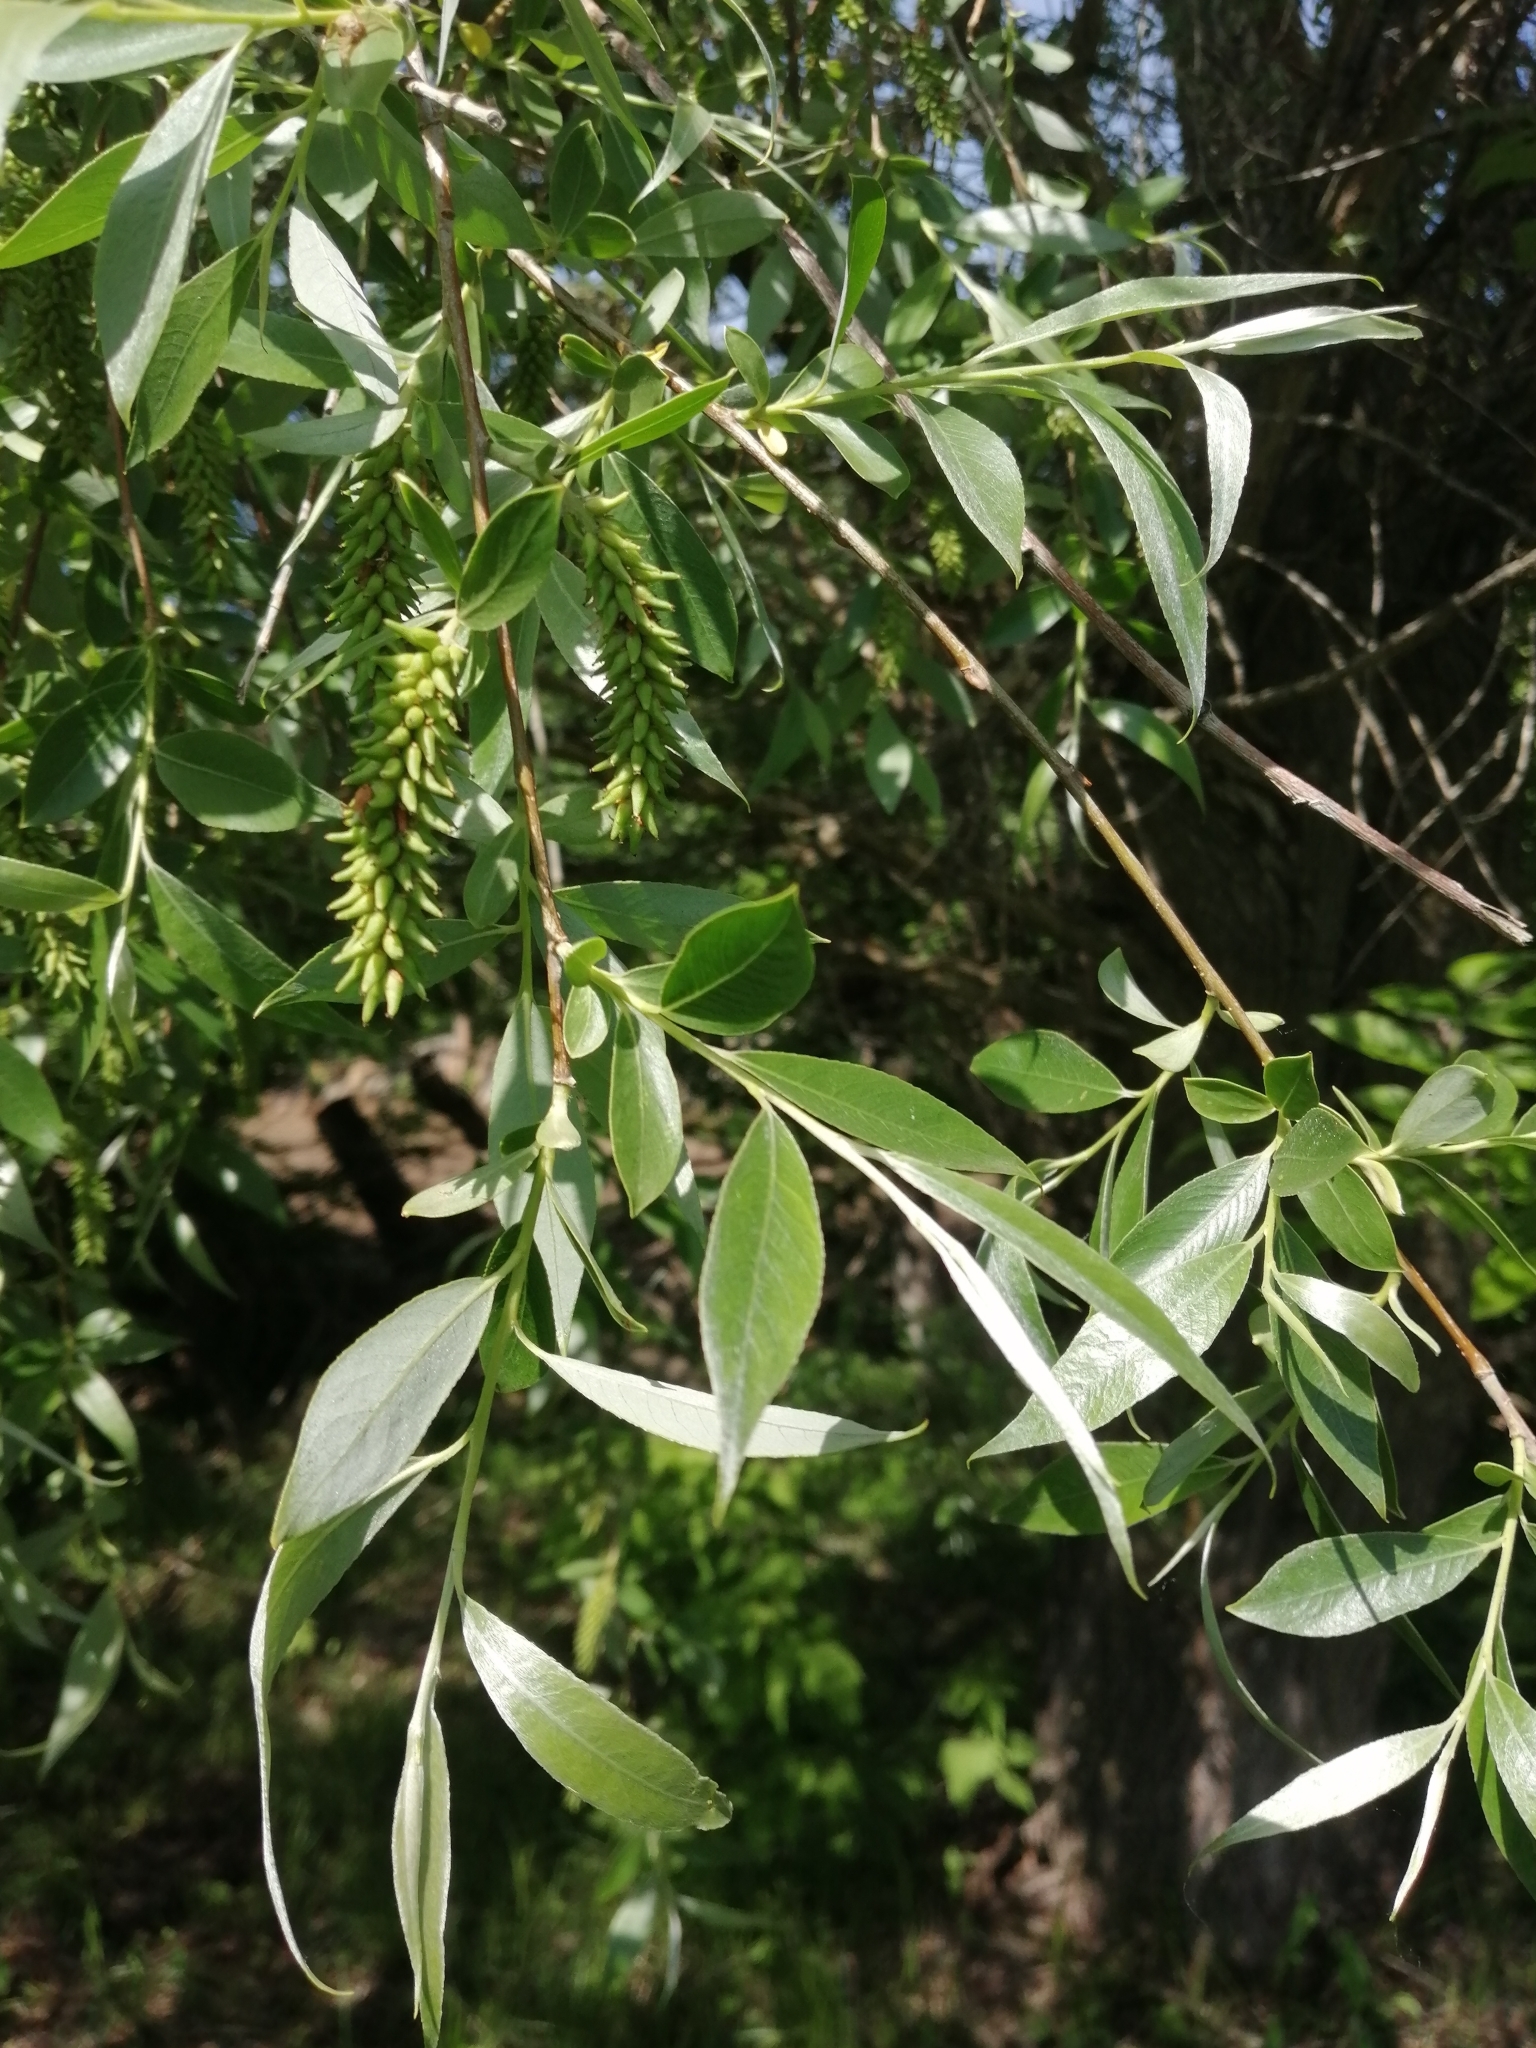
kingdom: Plantae
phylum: Tracheophyta
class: Magnoliopsida
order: Malpighiales
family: Salicaceae
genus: Salix
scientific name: Salix alba
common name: White willow
